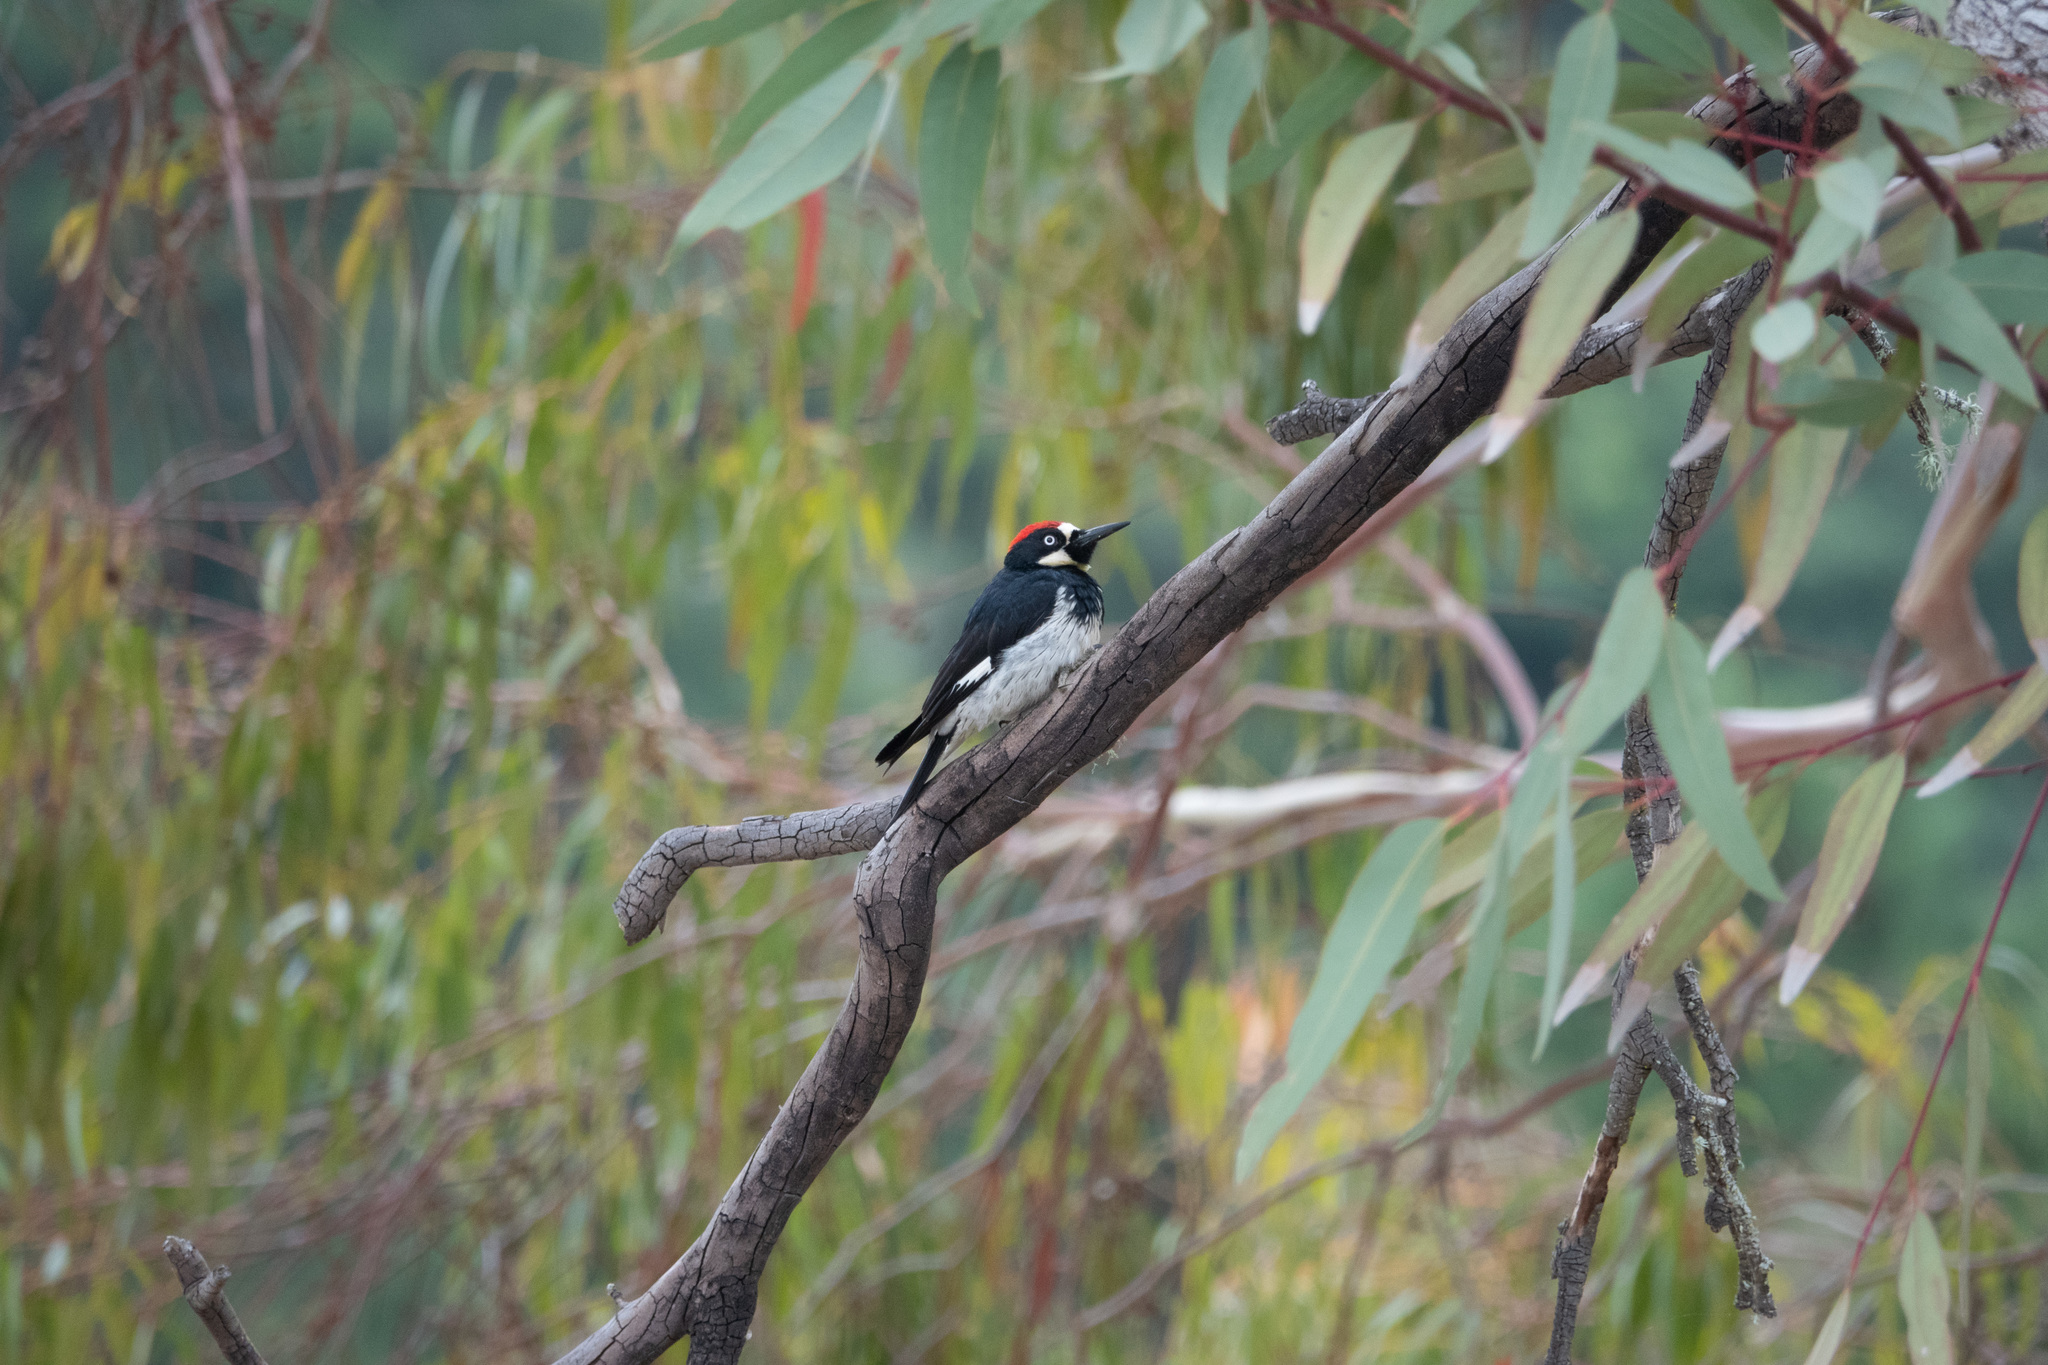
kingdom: Animalia
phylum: Chordata
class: Aves
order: Piciformes
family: Picidae
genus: Melanerpes
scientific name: Melanerpes formicivorus
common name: Acorn woodpecker
